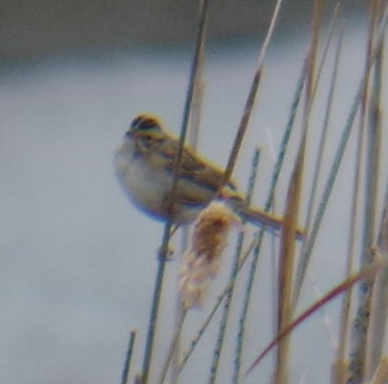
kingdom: Animalia
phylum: Chordata
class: Aves
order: Passeriformes
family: Passerellidae
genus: Spizella
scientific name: Spizella pallida
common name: Clay-colored sparrow
